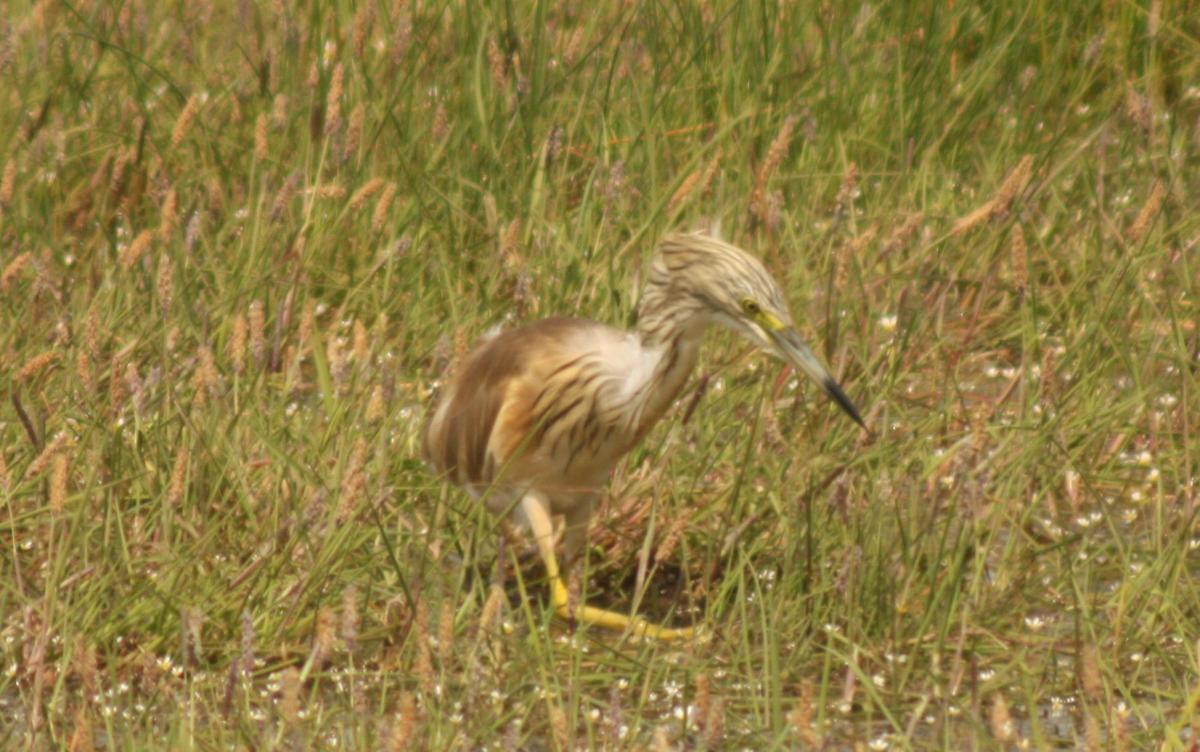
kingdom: Animalia
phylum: Chordata
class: Aves
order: Pelecaniformes
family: Ardeidae
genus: Ardeola
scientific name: Ardeola ralloides
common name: Squacco heron
